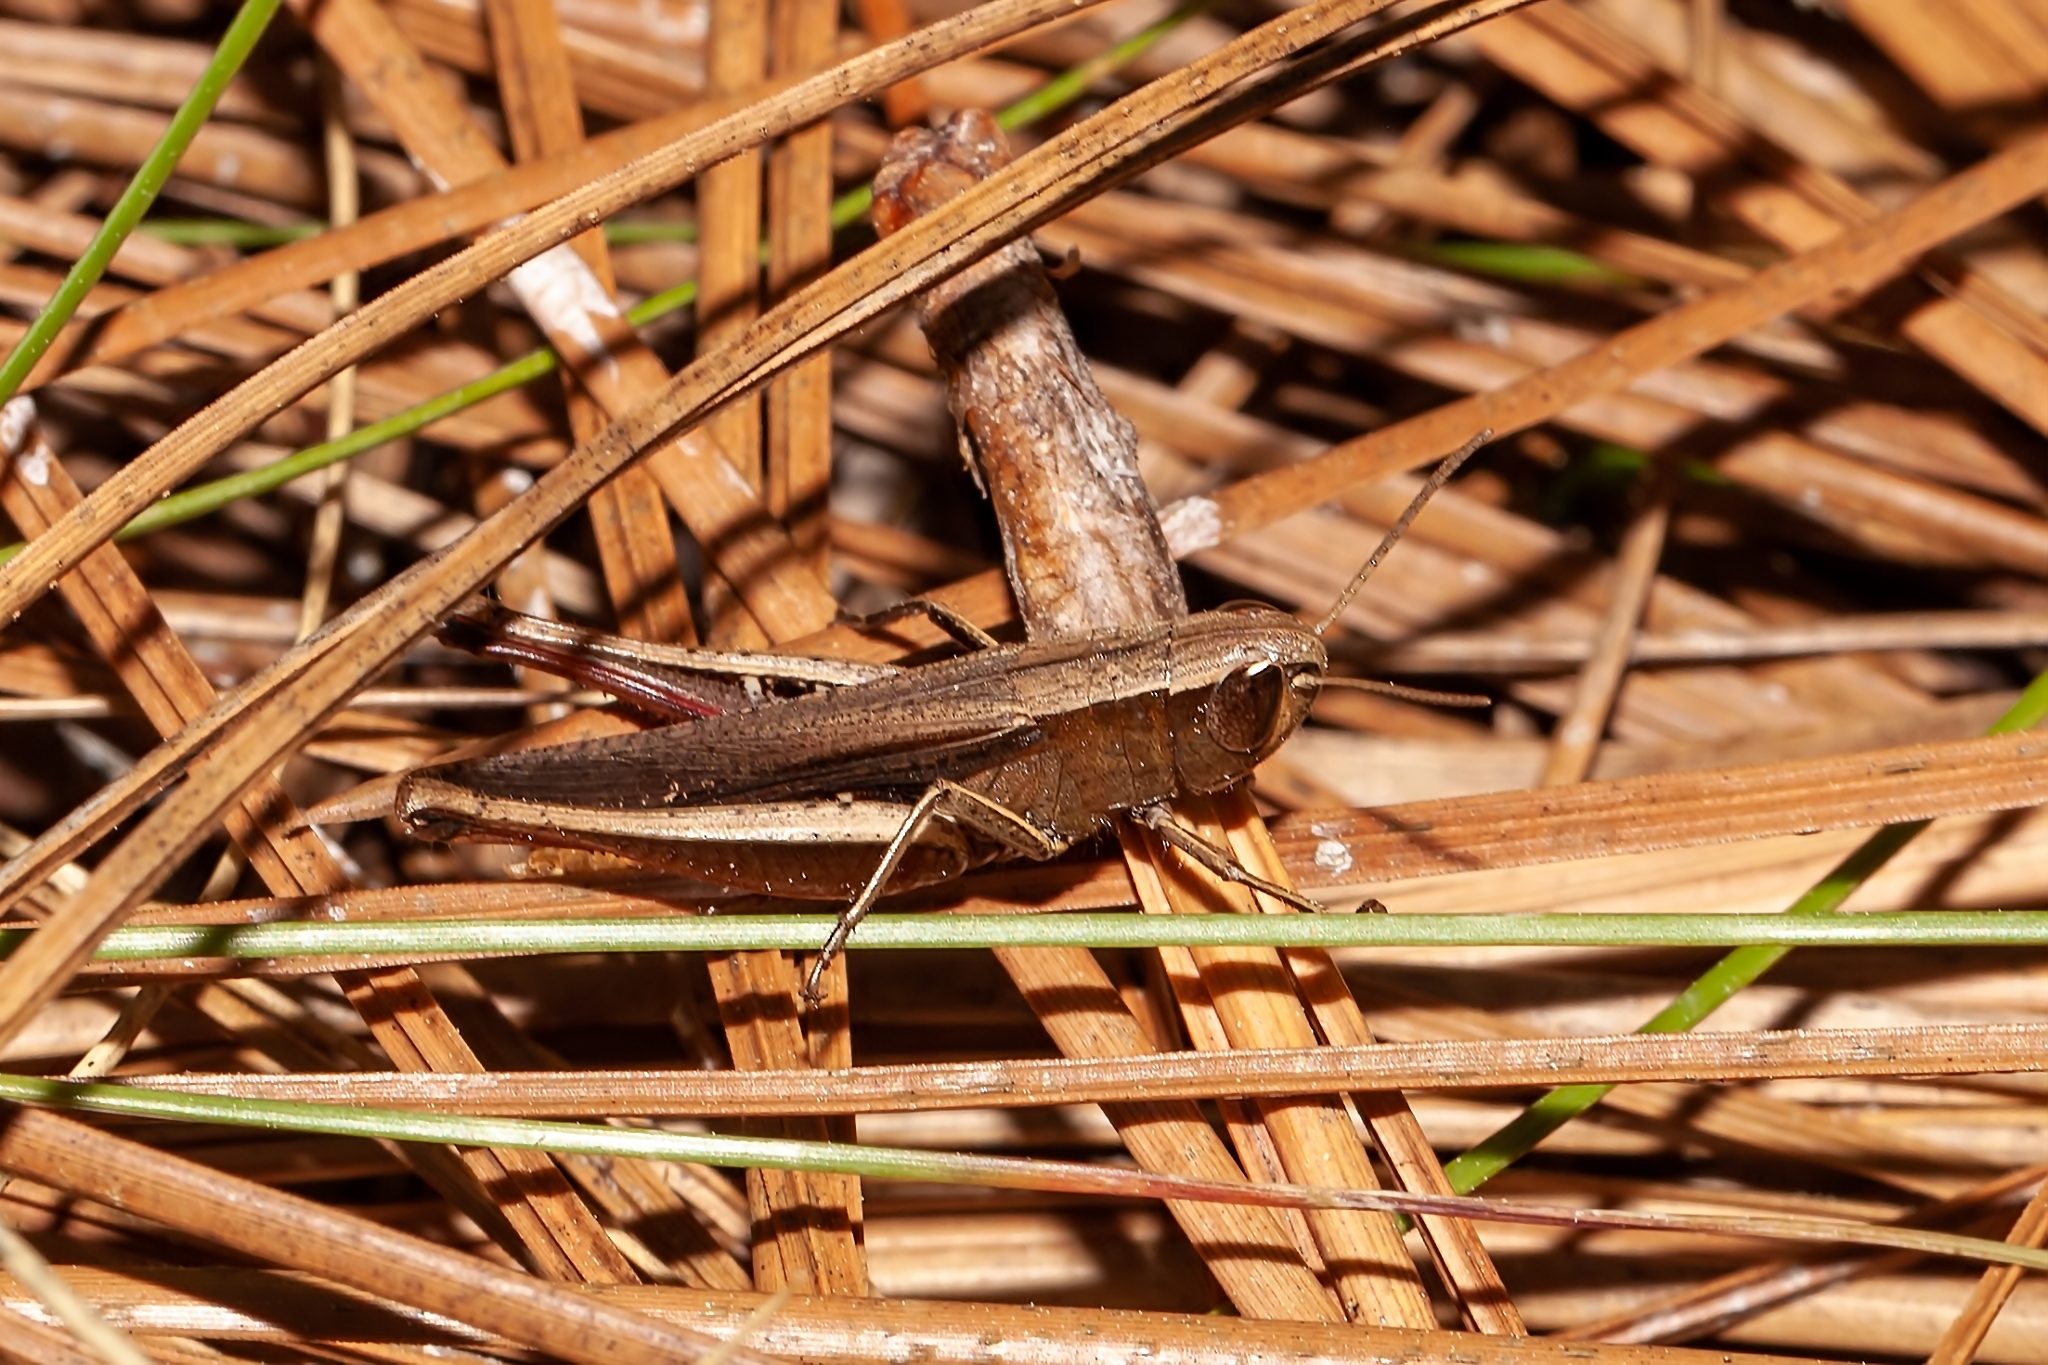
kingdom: Animalia
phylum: Arthropoda
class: Insecta
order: Orthoptera
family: Acrididae
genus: Amblytropidia
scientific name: Amblytropidia mysteca
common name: Brown winter grasshopper
